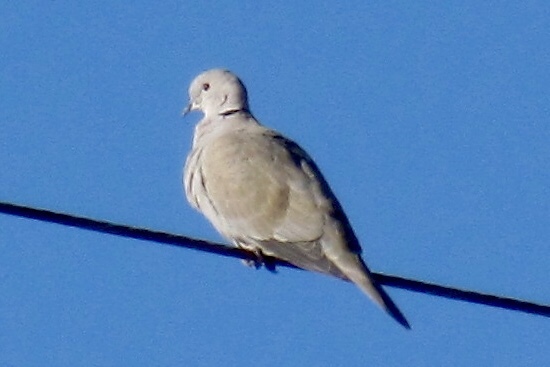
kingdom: Animalia
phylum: Chordata
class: Aves
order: Columbiformes
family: Columbidae
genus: Streptopelia
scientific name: Streptopelia decaocto
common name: Eurasian collared dove
